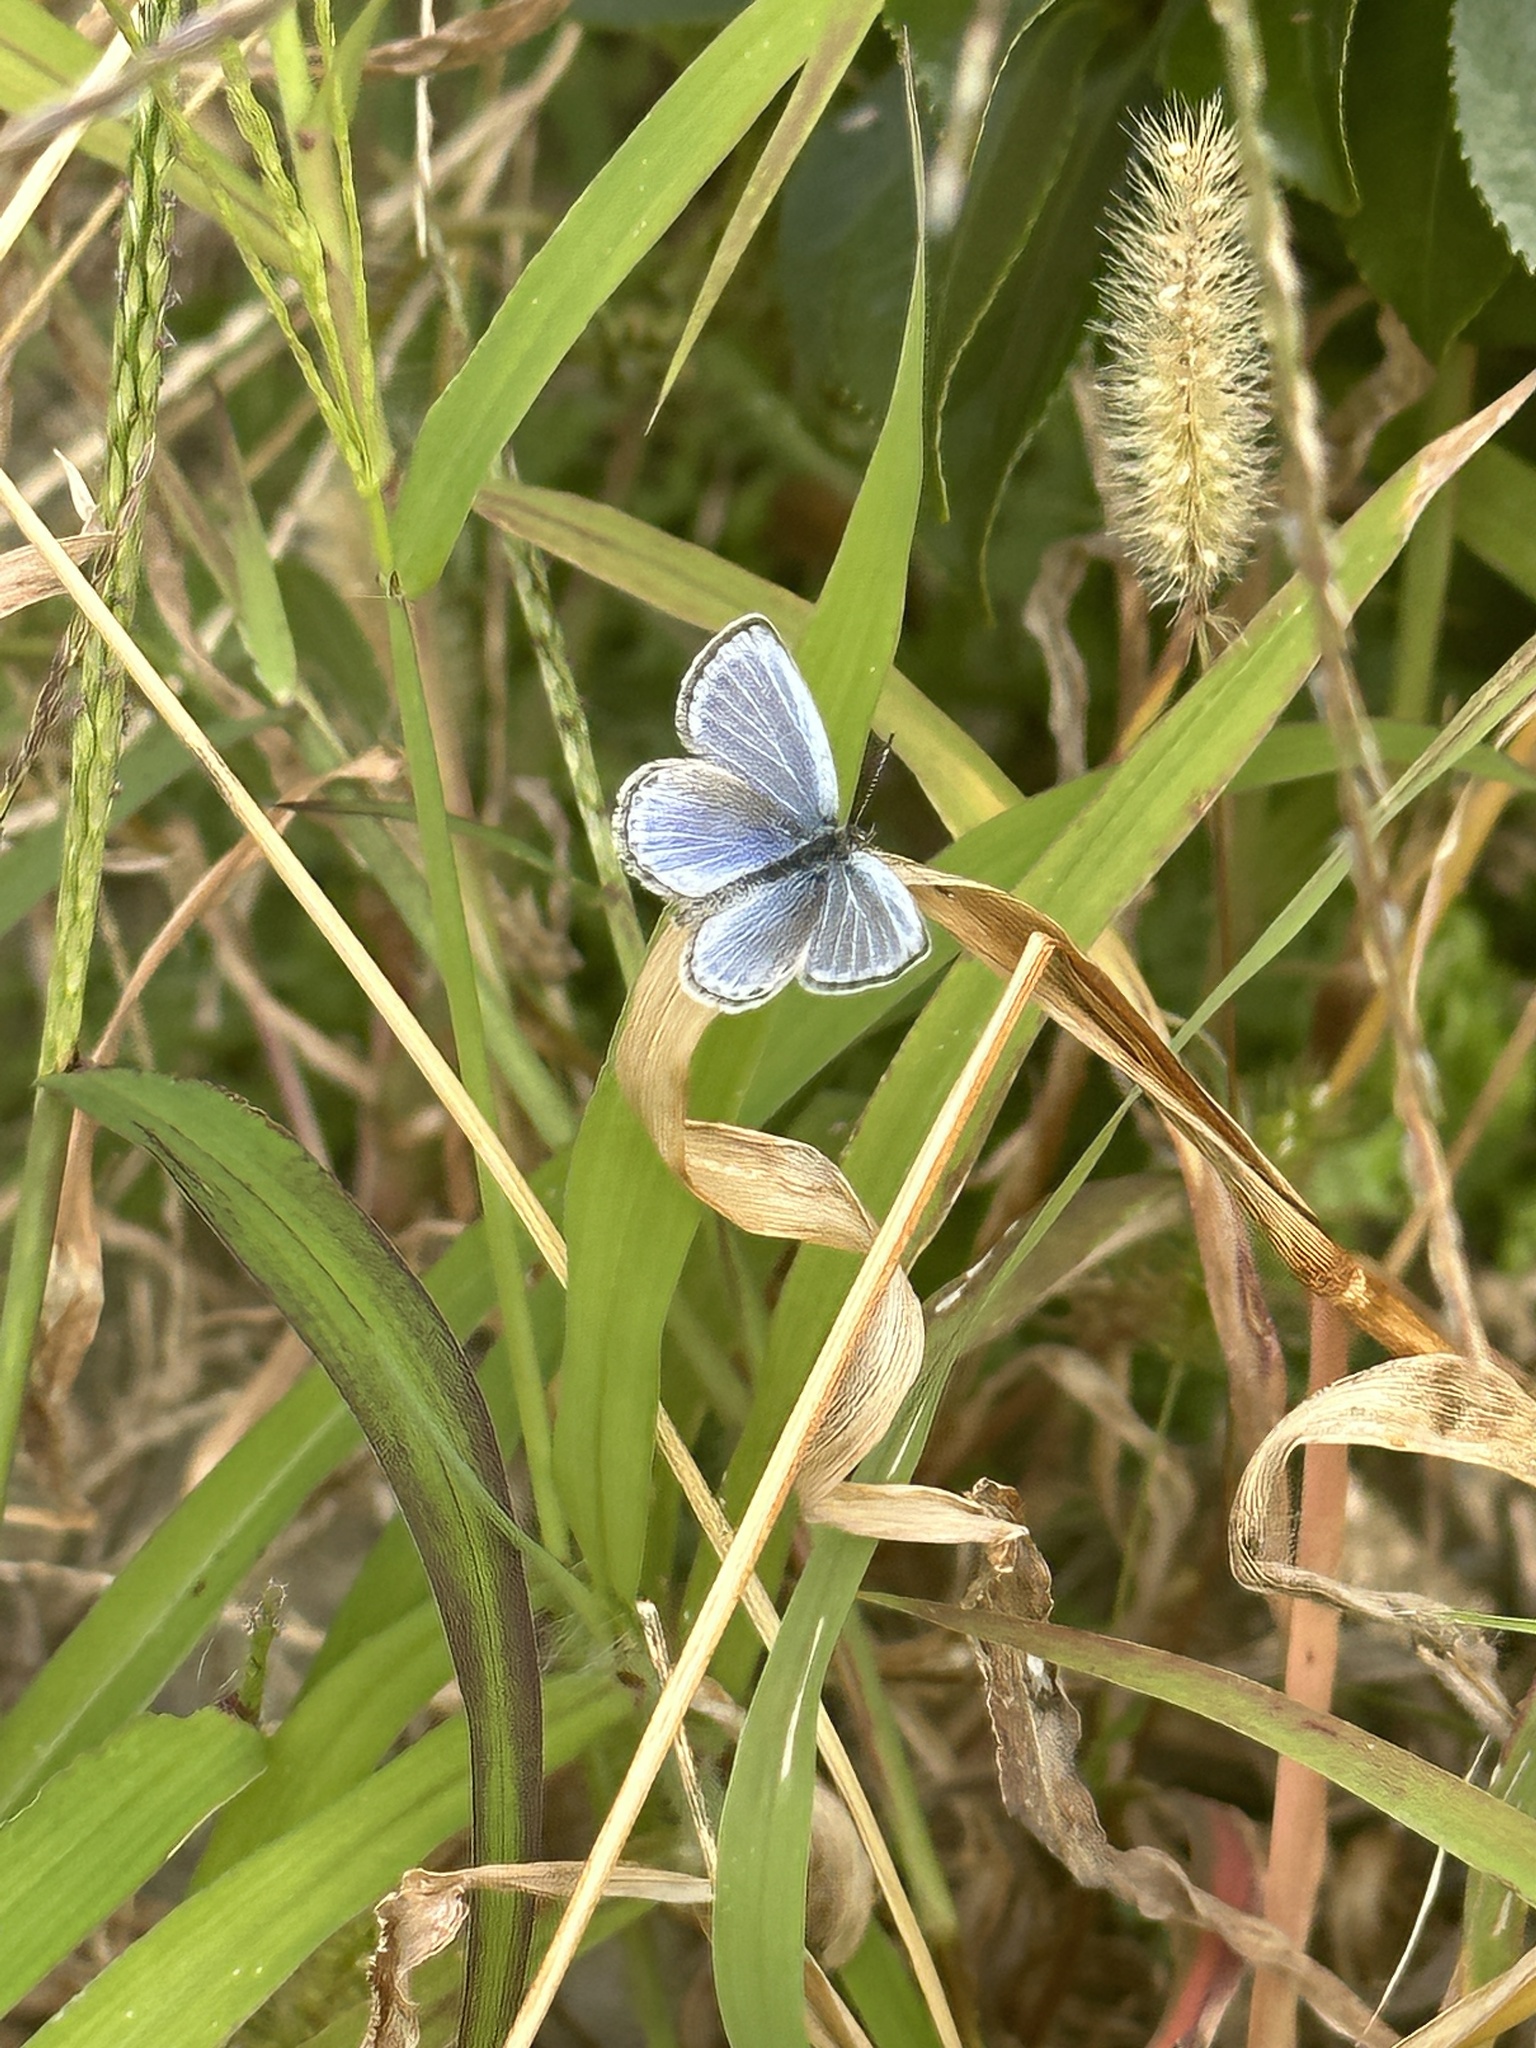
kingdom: Animalia
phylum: Arthropoda
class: Insecta
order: Lepidoptera
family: Lycaenidae
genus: Pseudozizeeria
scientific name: Pseudozizeeria maha
